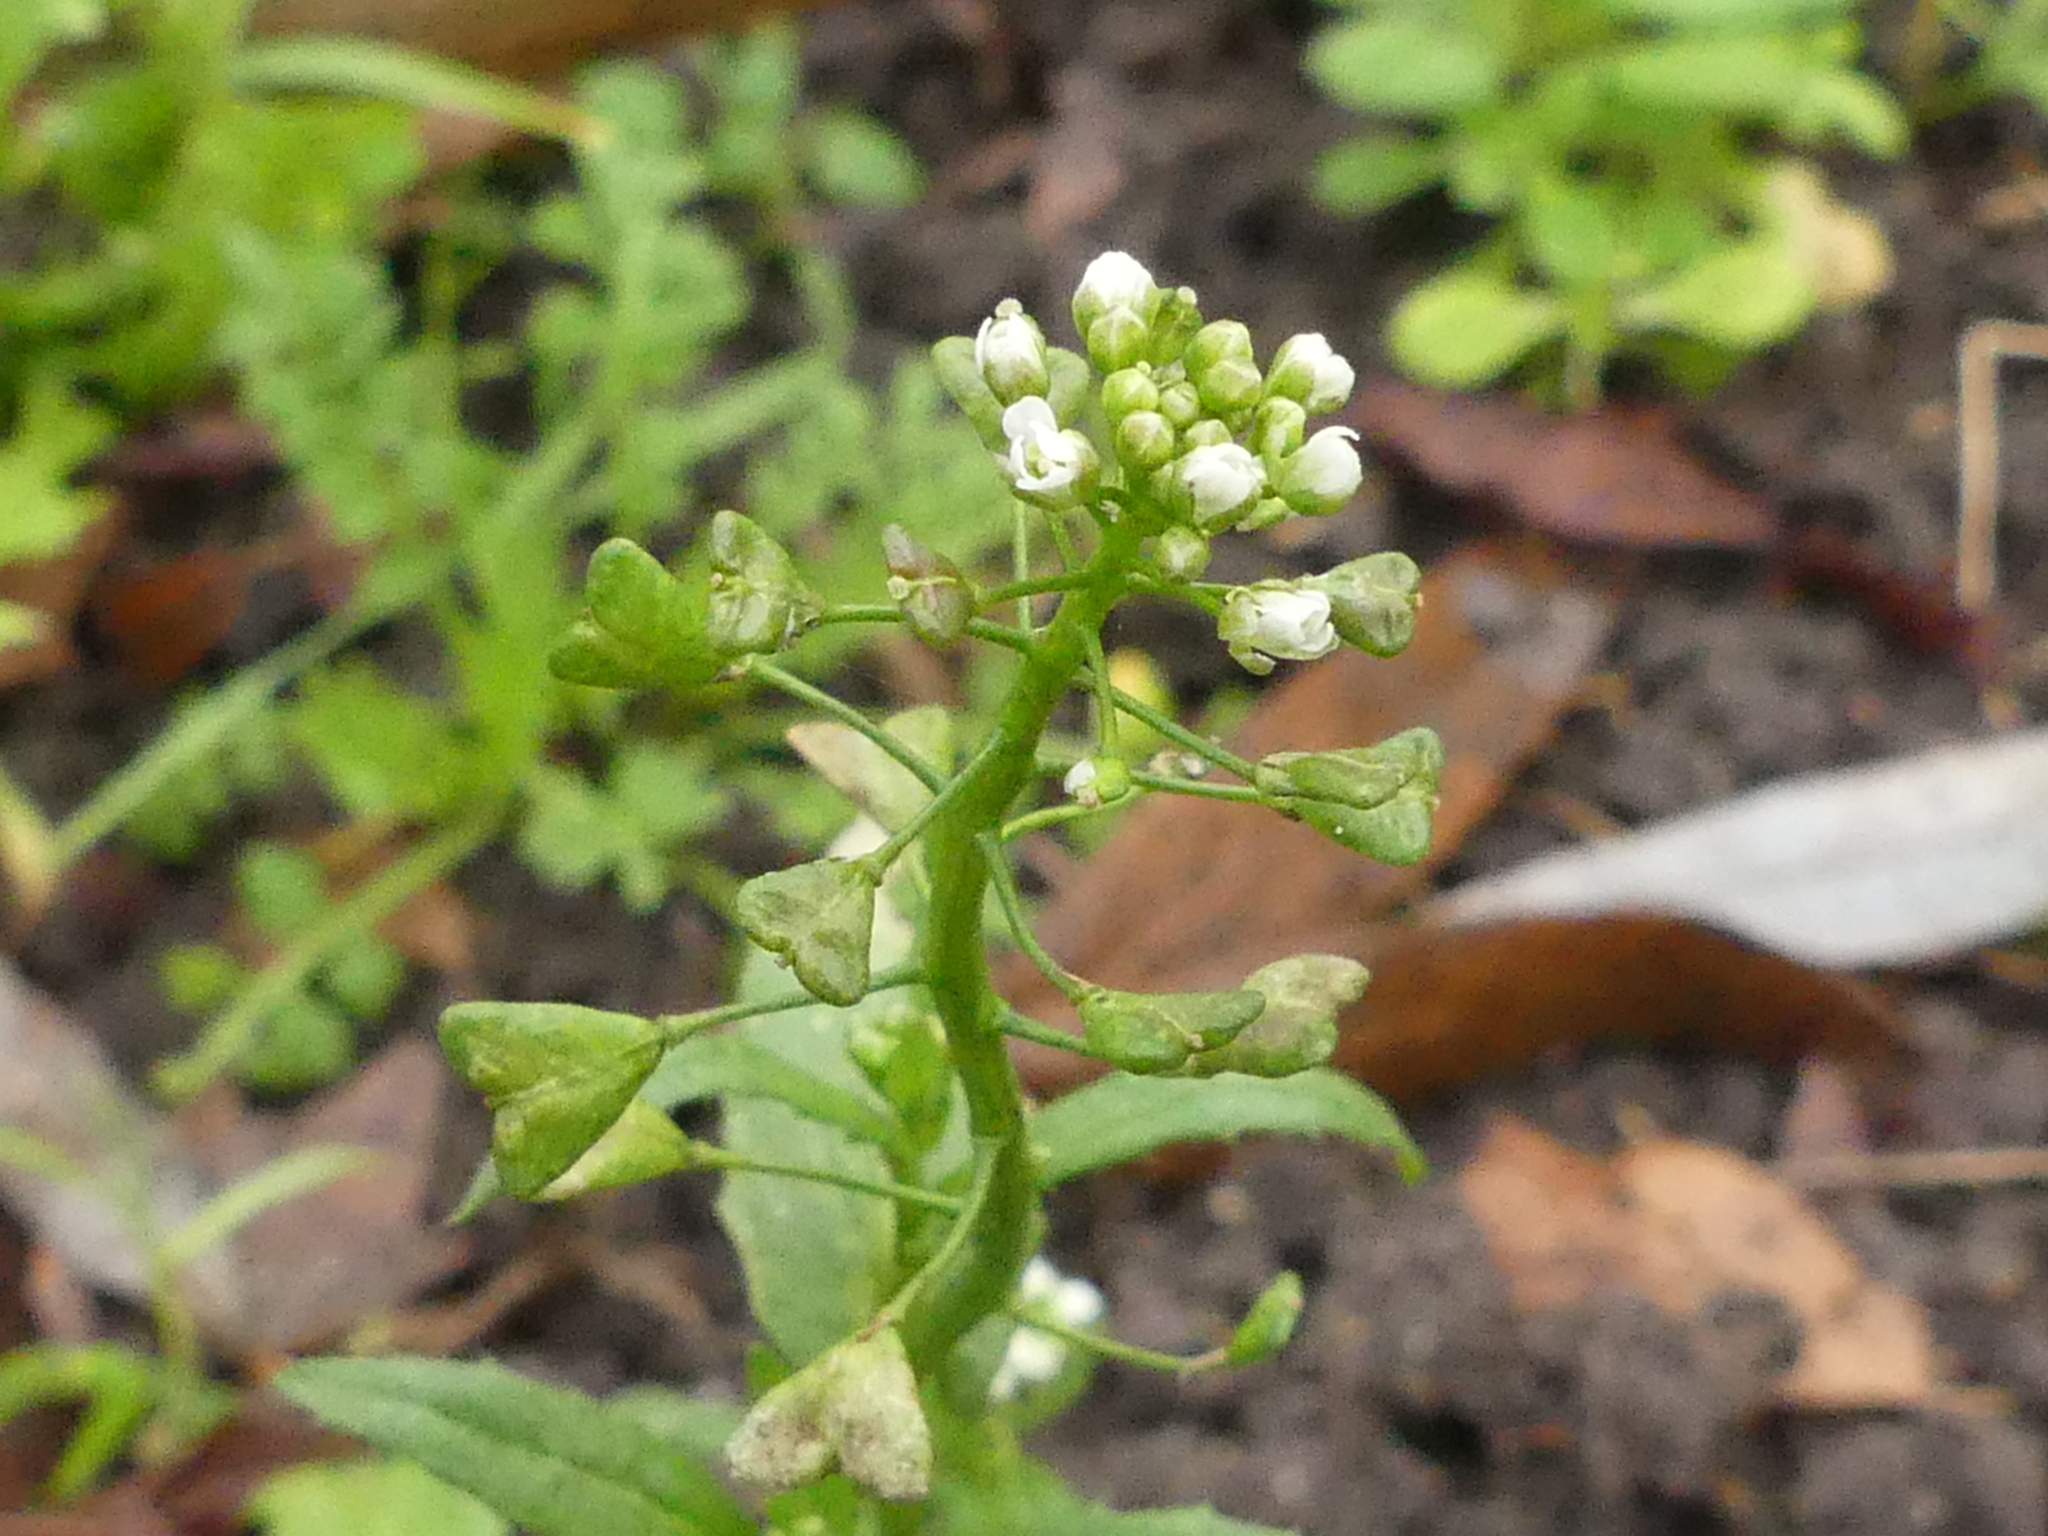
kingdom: Plantae
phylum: Tracheophyta
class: Magnoliopsida
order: Brassicales
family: Brassicaceae
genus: Capsella
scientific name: Capsella bursa-pastoris
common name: Shepherd's purse
